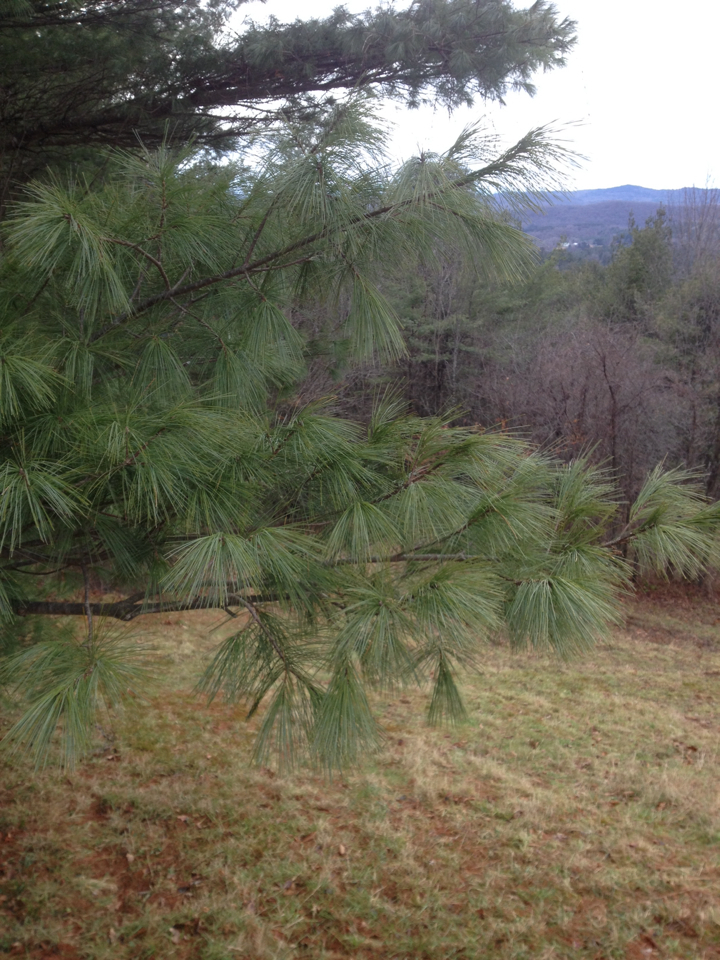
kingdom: Plantae
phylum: Tracheophyta
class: Pinopsida
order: Pinales
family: Pinaceae
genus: Pinus
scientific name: Pinus strobus
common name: Weymouth pine
